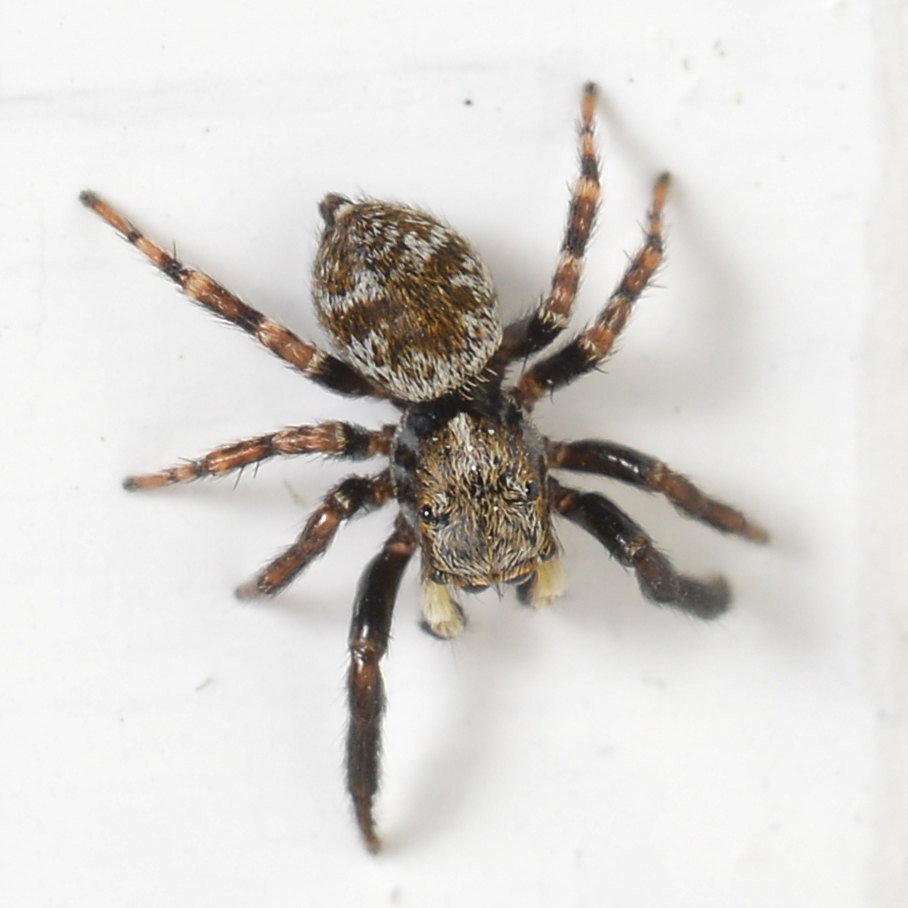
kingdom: Animalia
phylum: Arthropoda
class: Arachnida
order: Araneae
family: Salticidae
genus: Pseudeuophrys
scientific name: Pseudeuophrys erratica
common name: Jumping spider
